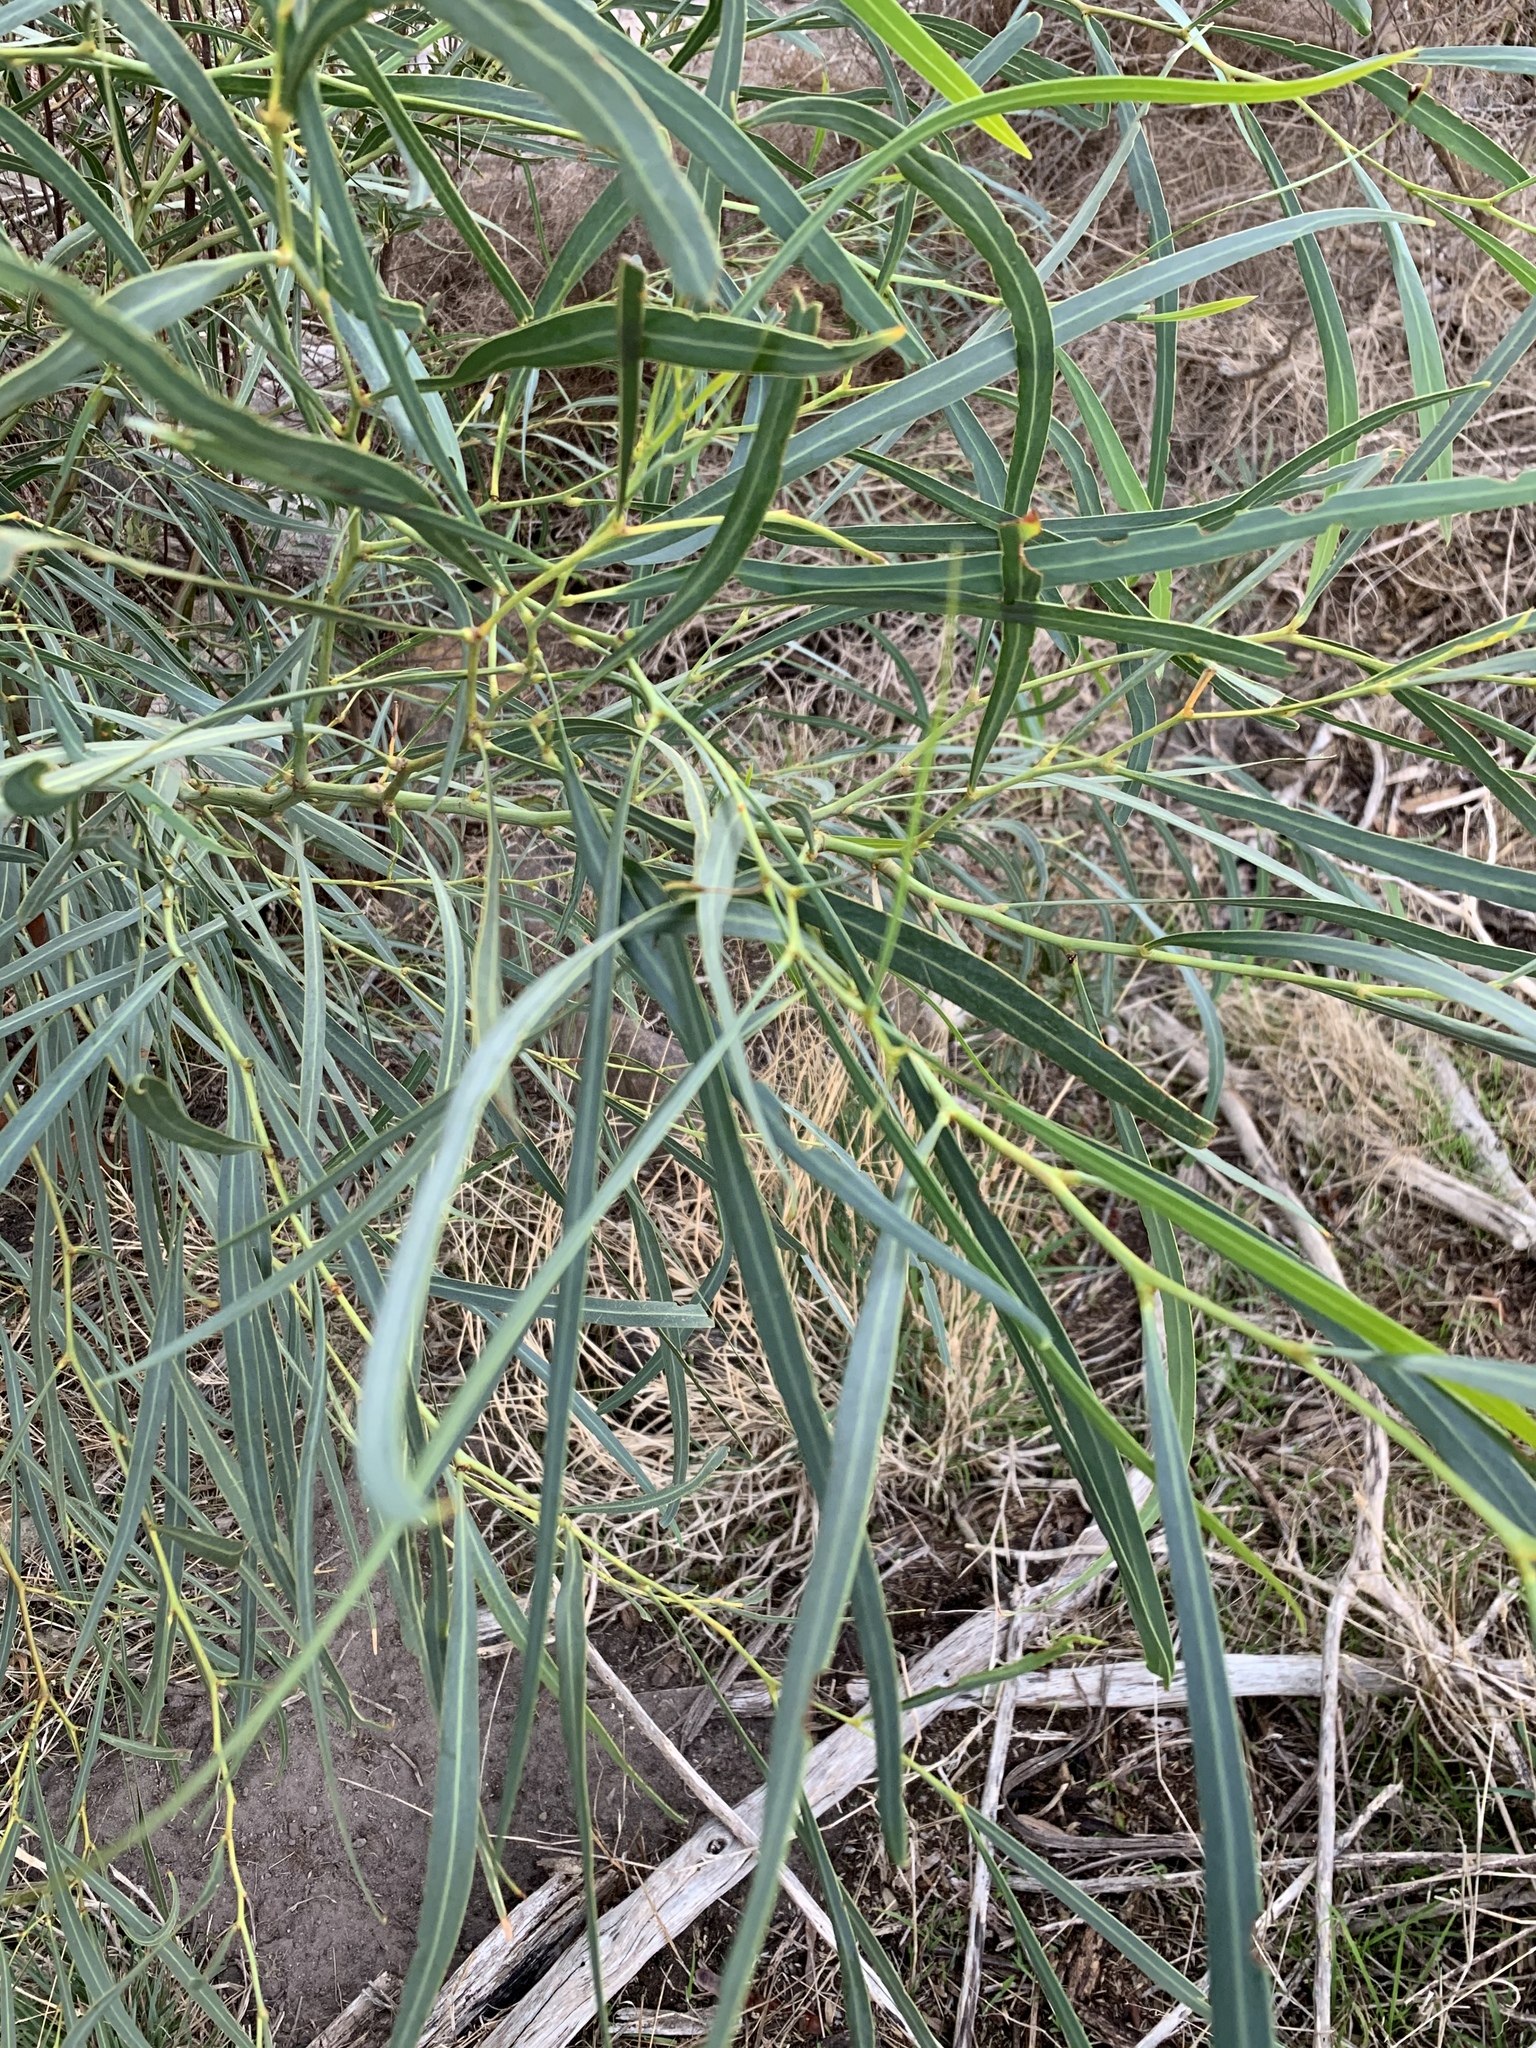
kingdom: Plantae
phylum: Tracheophyta
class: Magnoliopsida
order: Fabales
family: Fabaceae
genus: Acacia
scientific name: Acacia saligna
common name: Orange wattle
